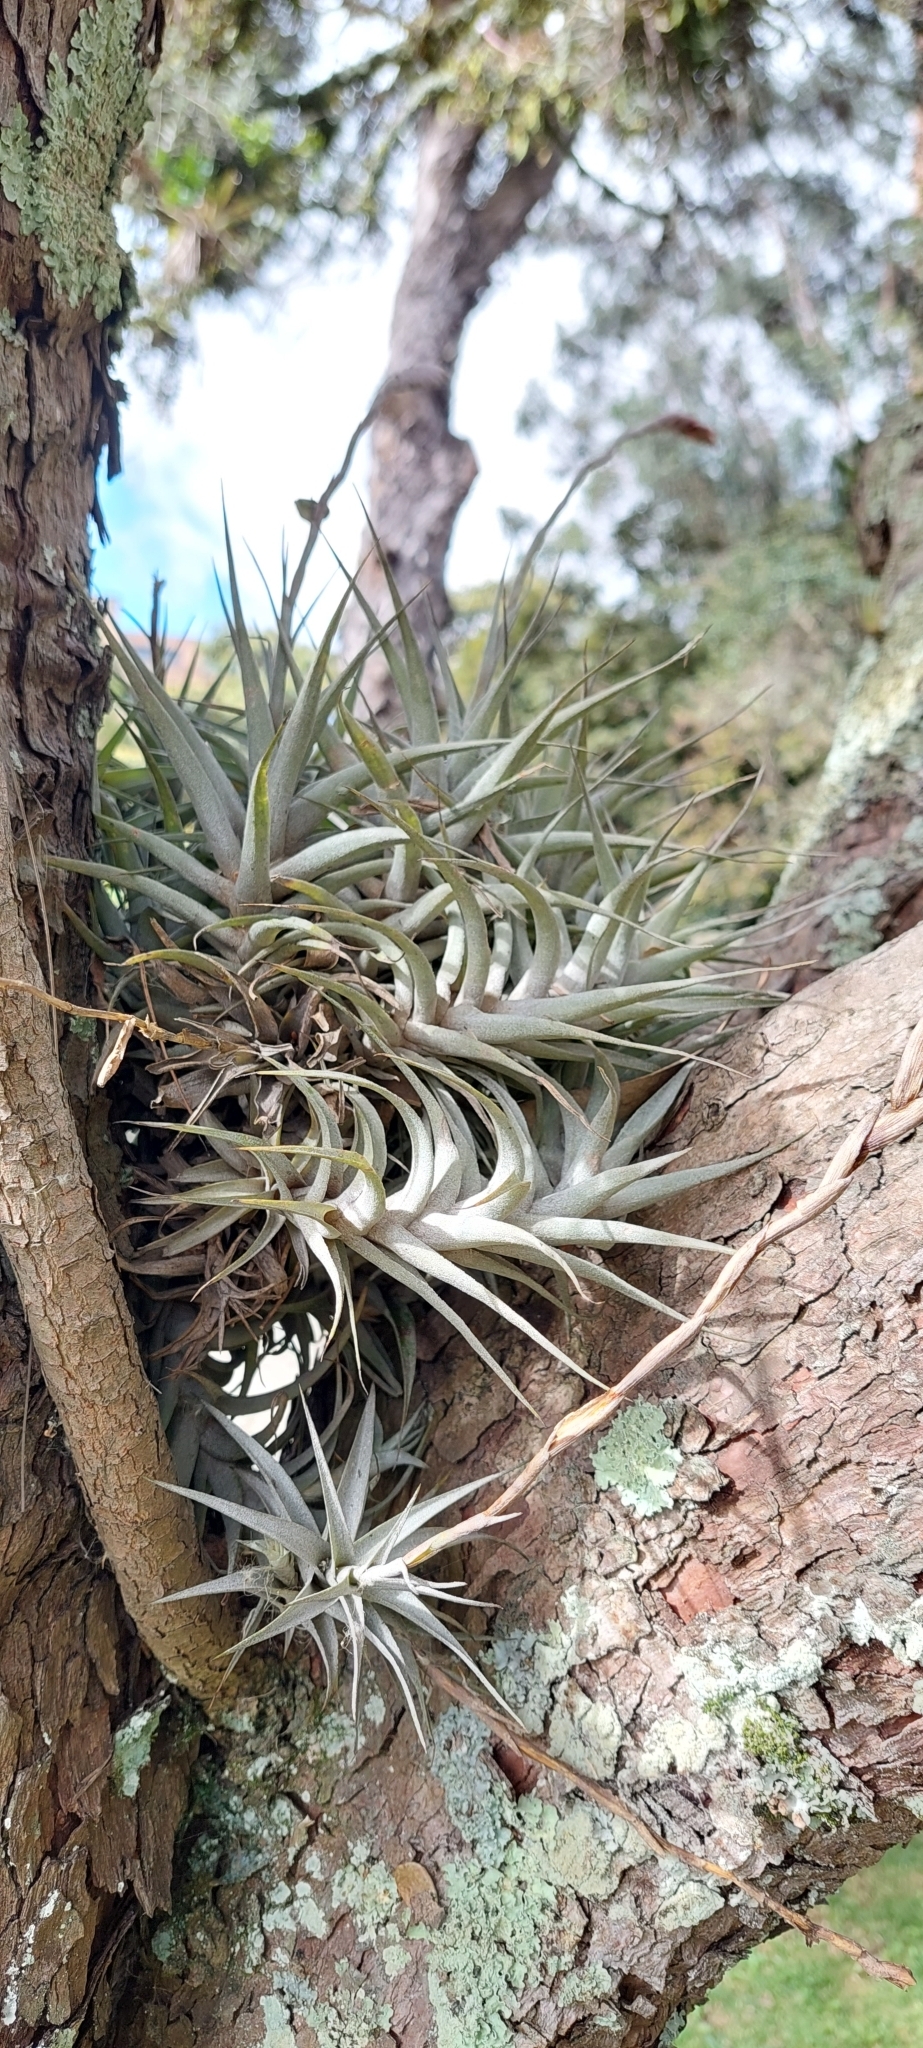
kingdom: Plantae
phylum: Tracheophyta
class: Liliopsida
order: Poales
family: Bromeliaceae
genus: Tillandsia
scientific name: Tillandsia incarnata
